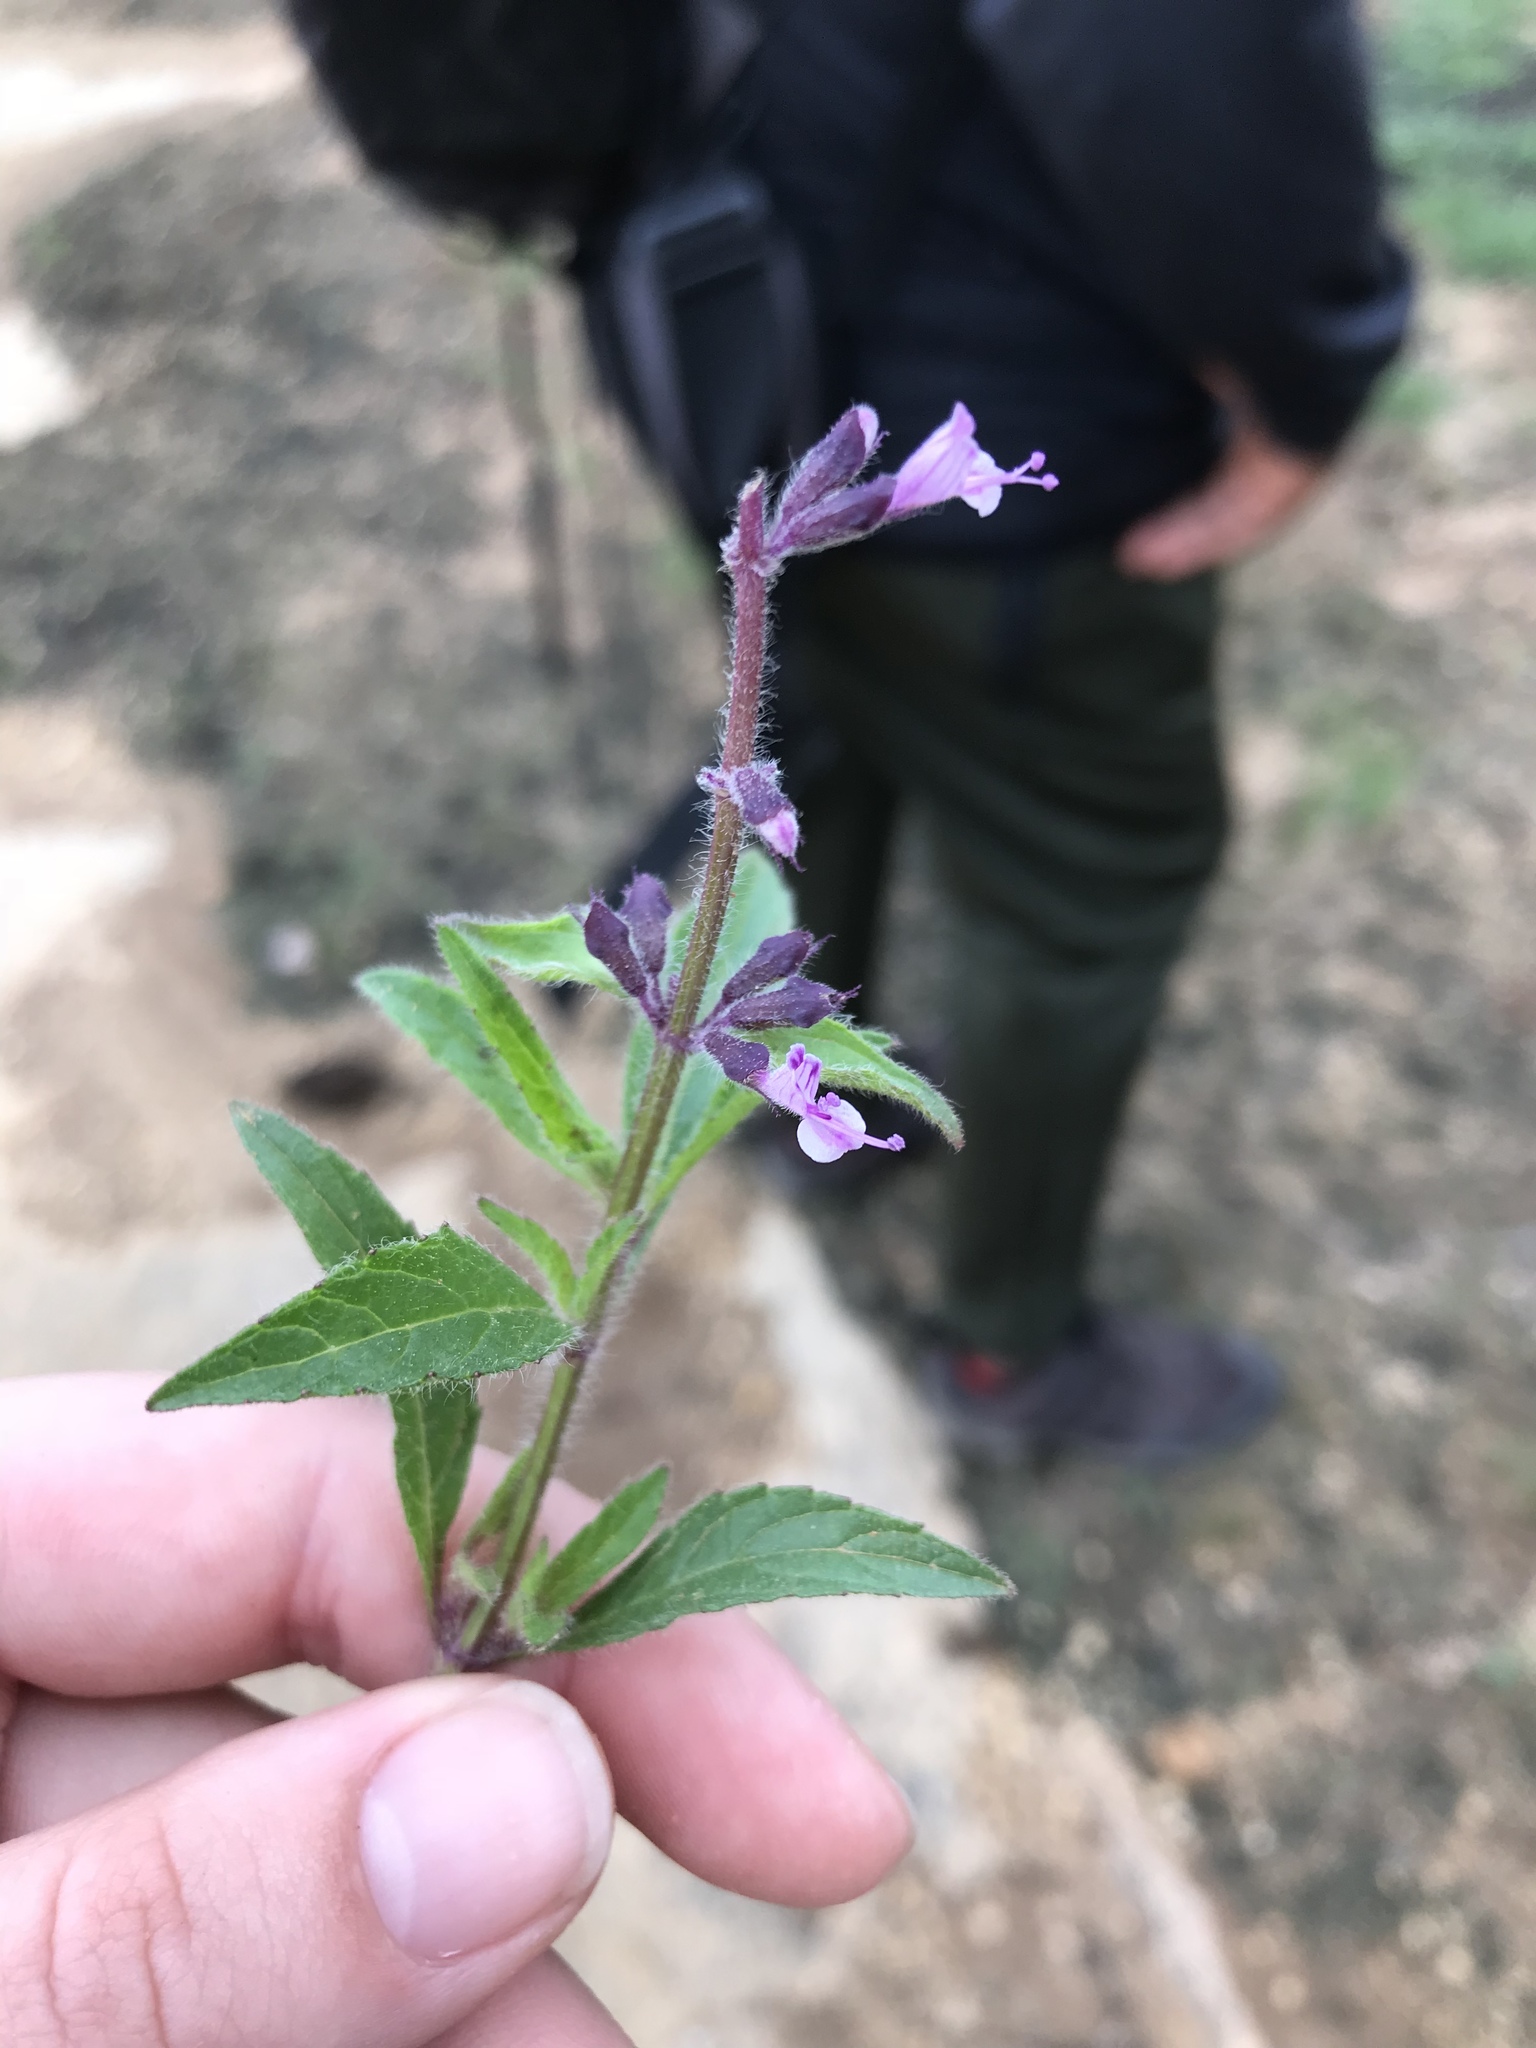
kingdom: Plantae
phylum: Tracheophyta
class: Magnoliopsida
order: Lamiales
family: Lamiaceae
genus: Syncolostemon
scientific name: Syncolostemon canescens
